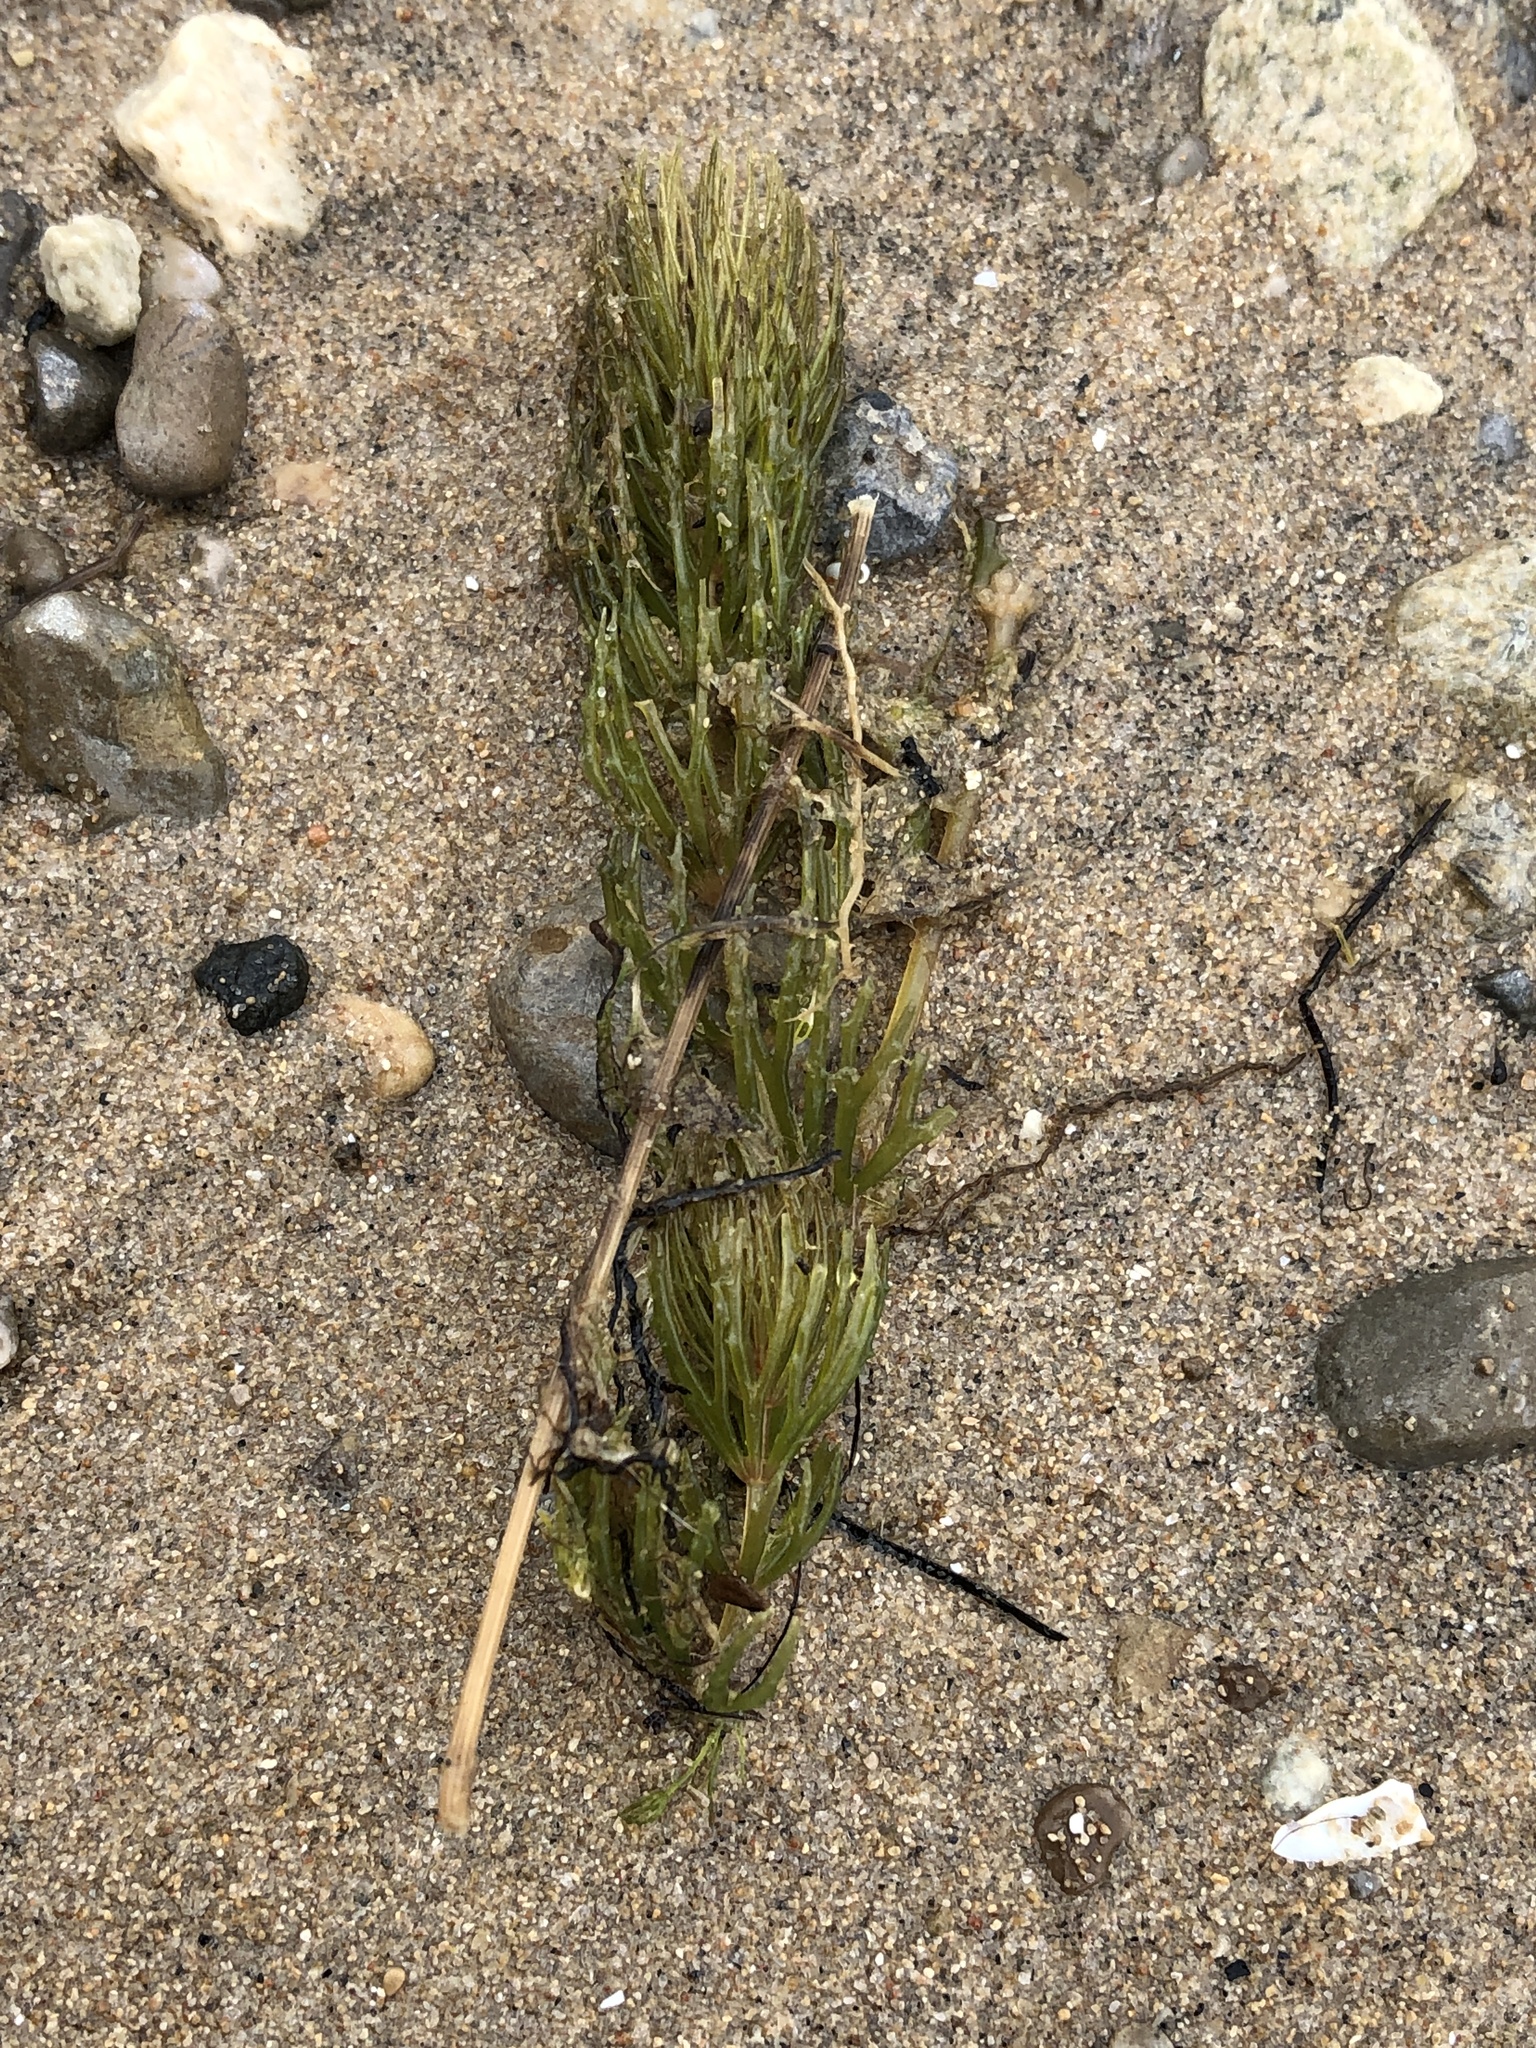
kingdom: Plantae
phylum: Tracheophyta
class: Magnoliopsida
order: Ceratophyllales
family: Ceratophyllaceae
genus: Ceratophyllum
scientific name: Ceratophyllum demersum
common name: Rigid hornwort
